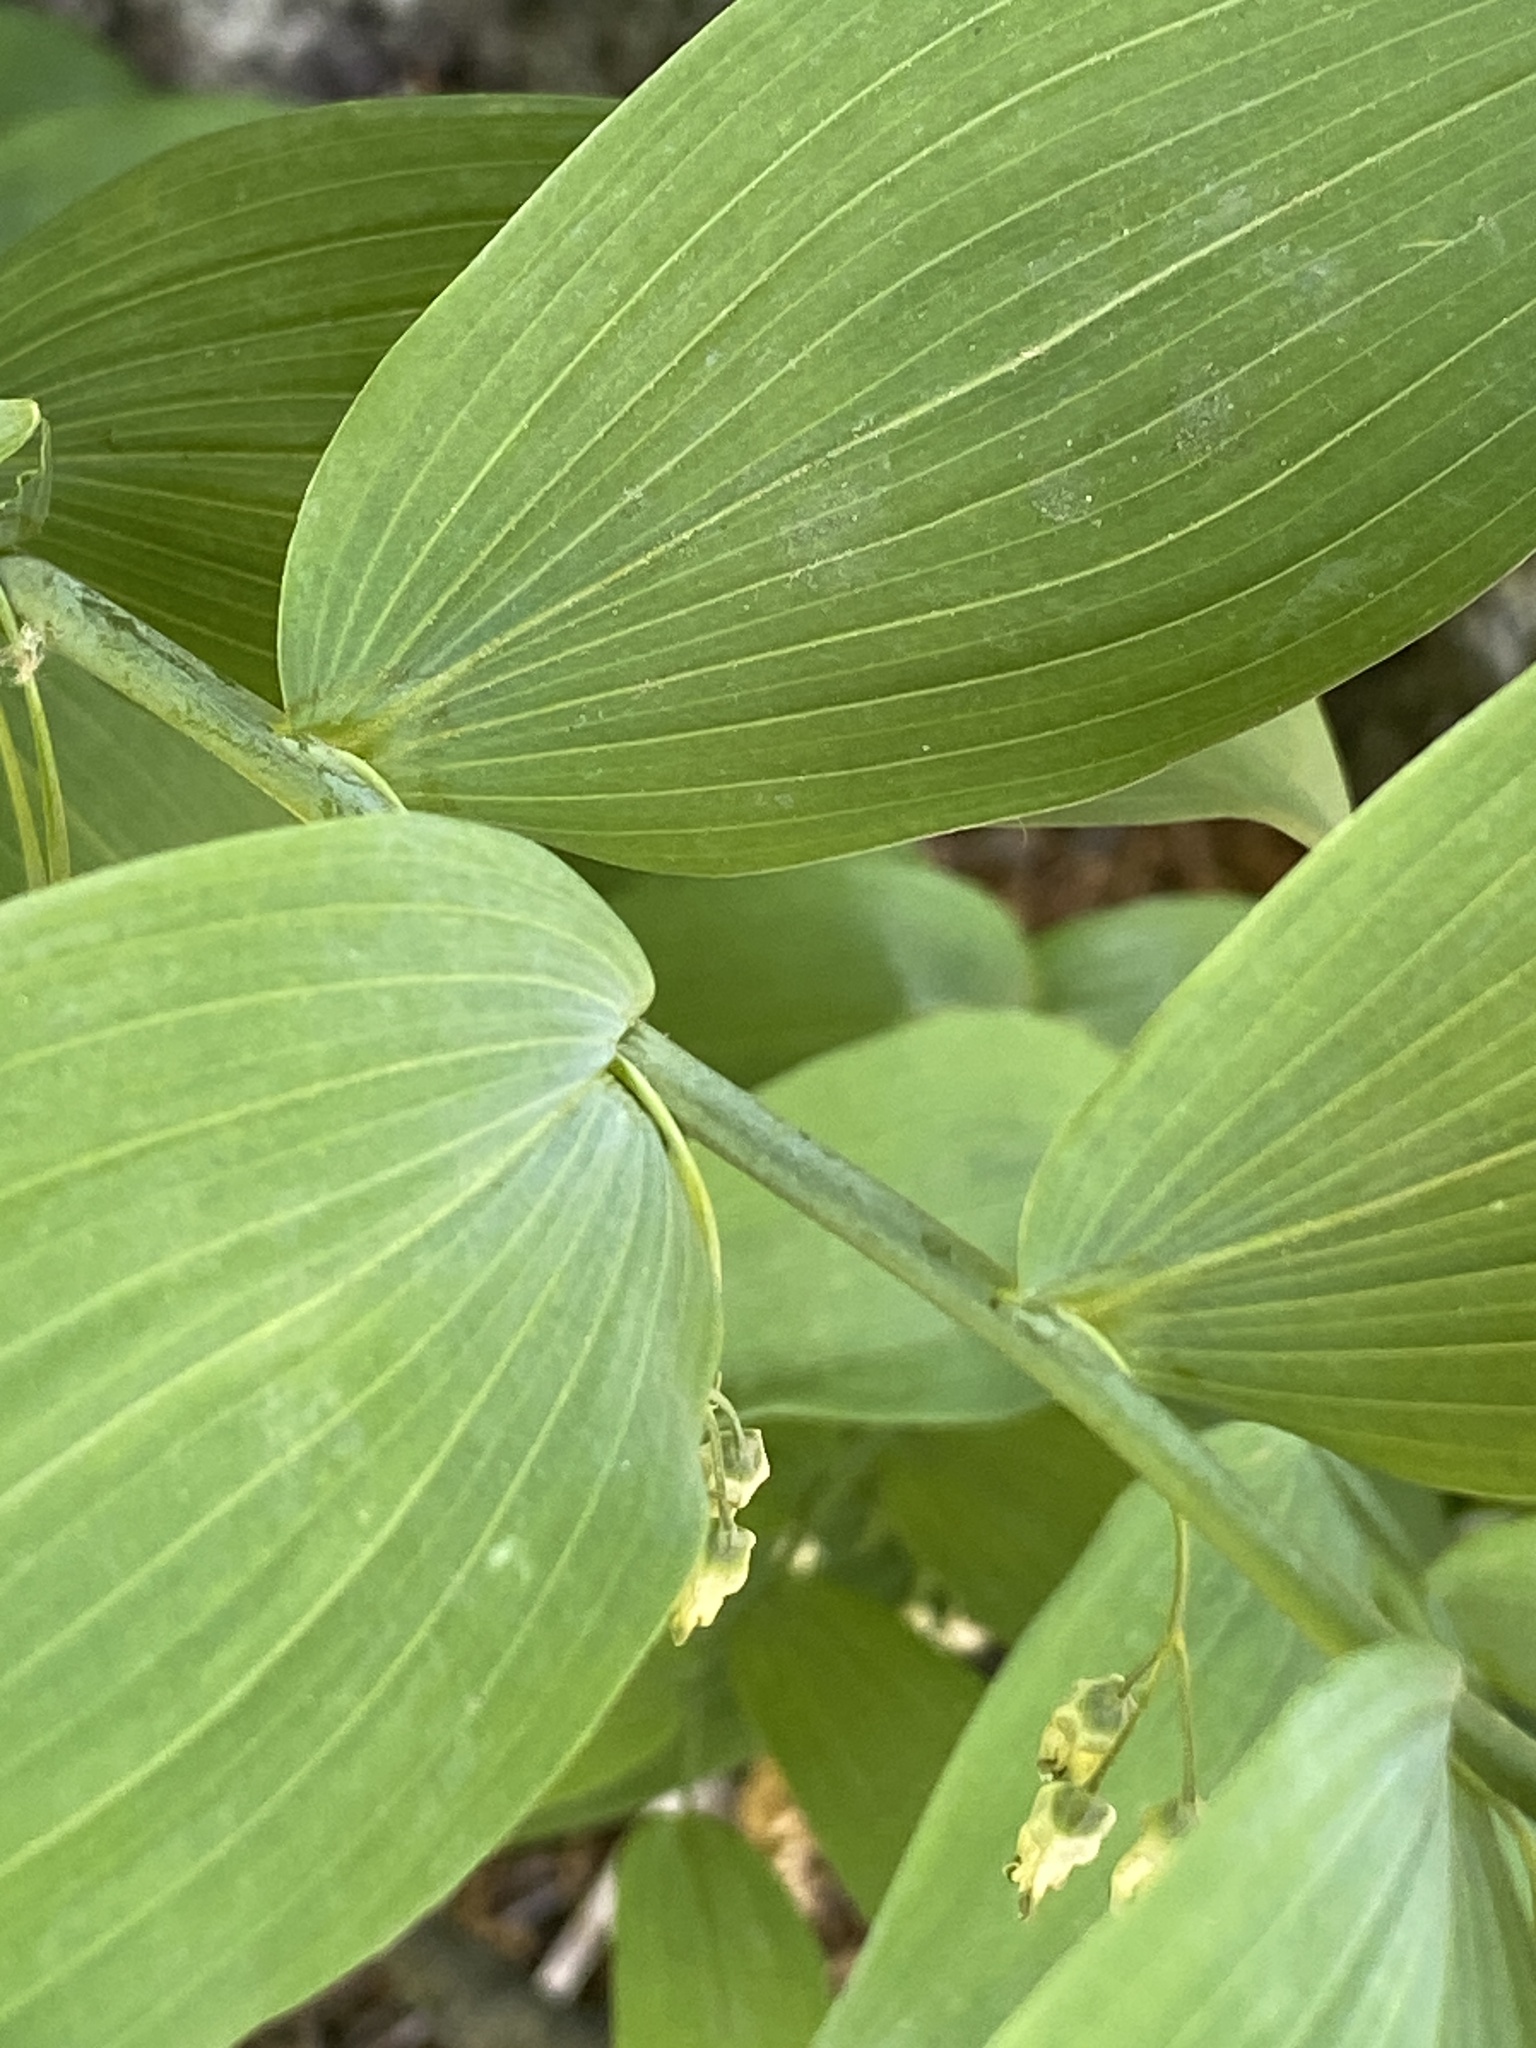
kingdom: Plantae
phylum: Tracheophyta
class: Liliopsida
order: Asparagales
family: Asparagaceae
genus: Polygonatum
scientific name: Polygonatum biflorum
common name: American solomon's-seal
